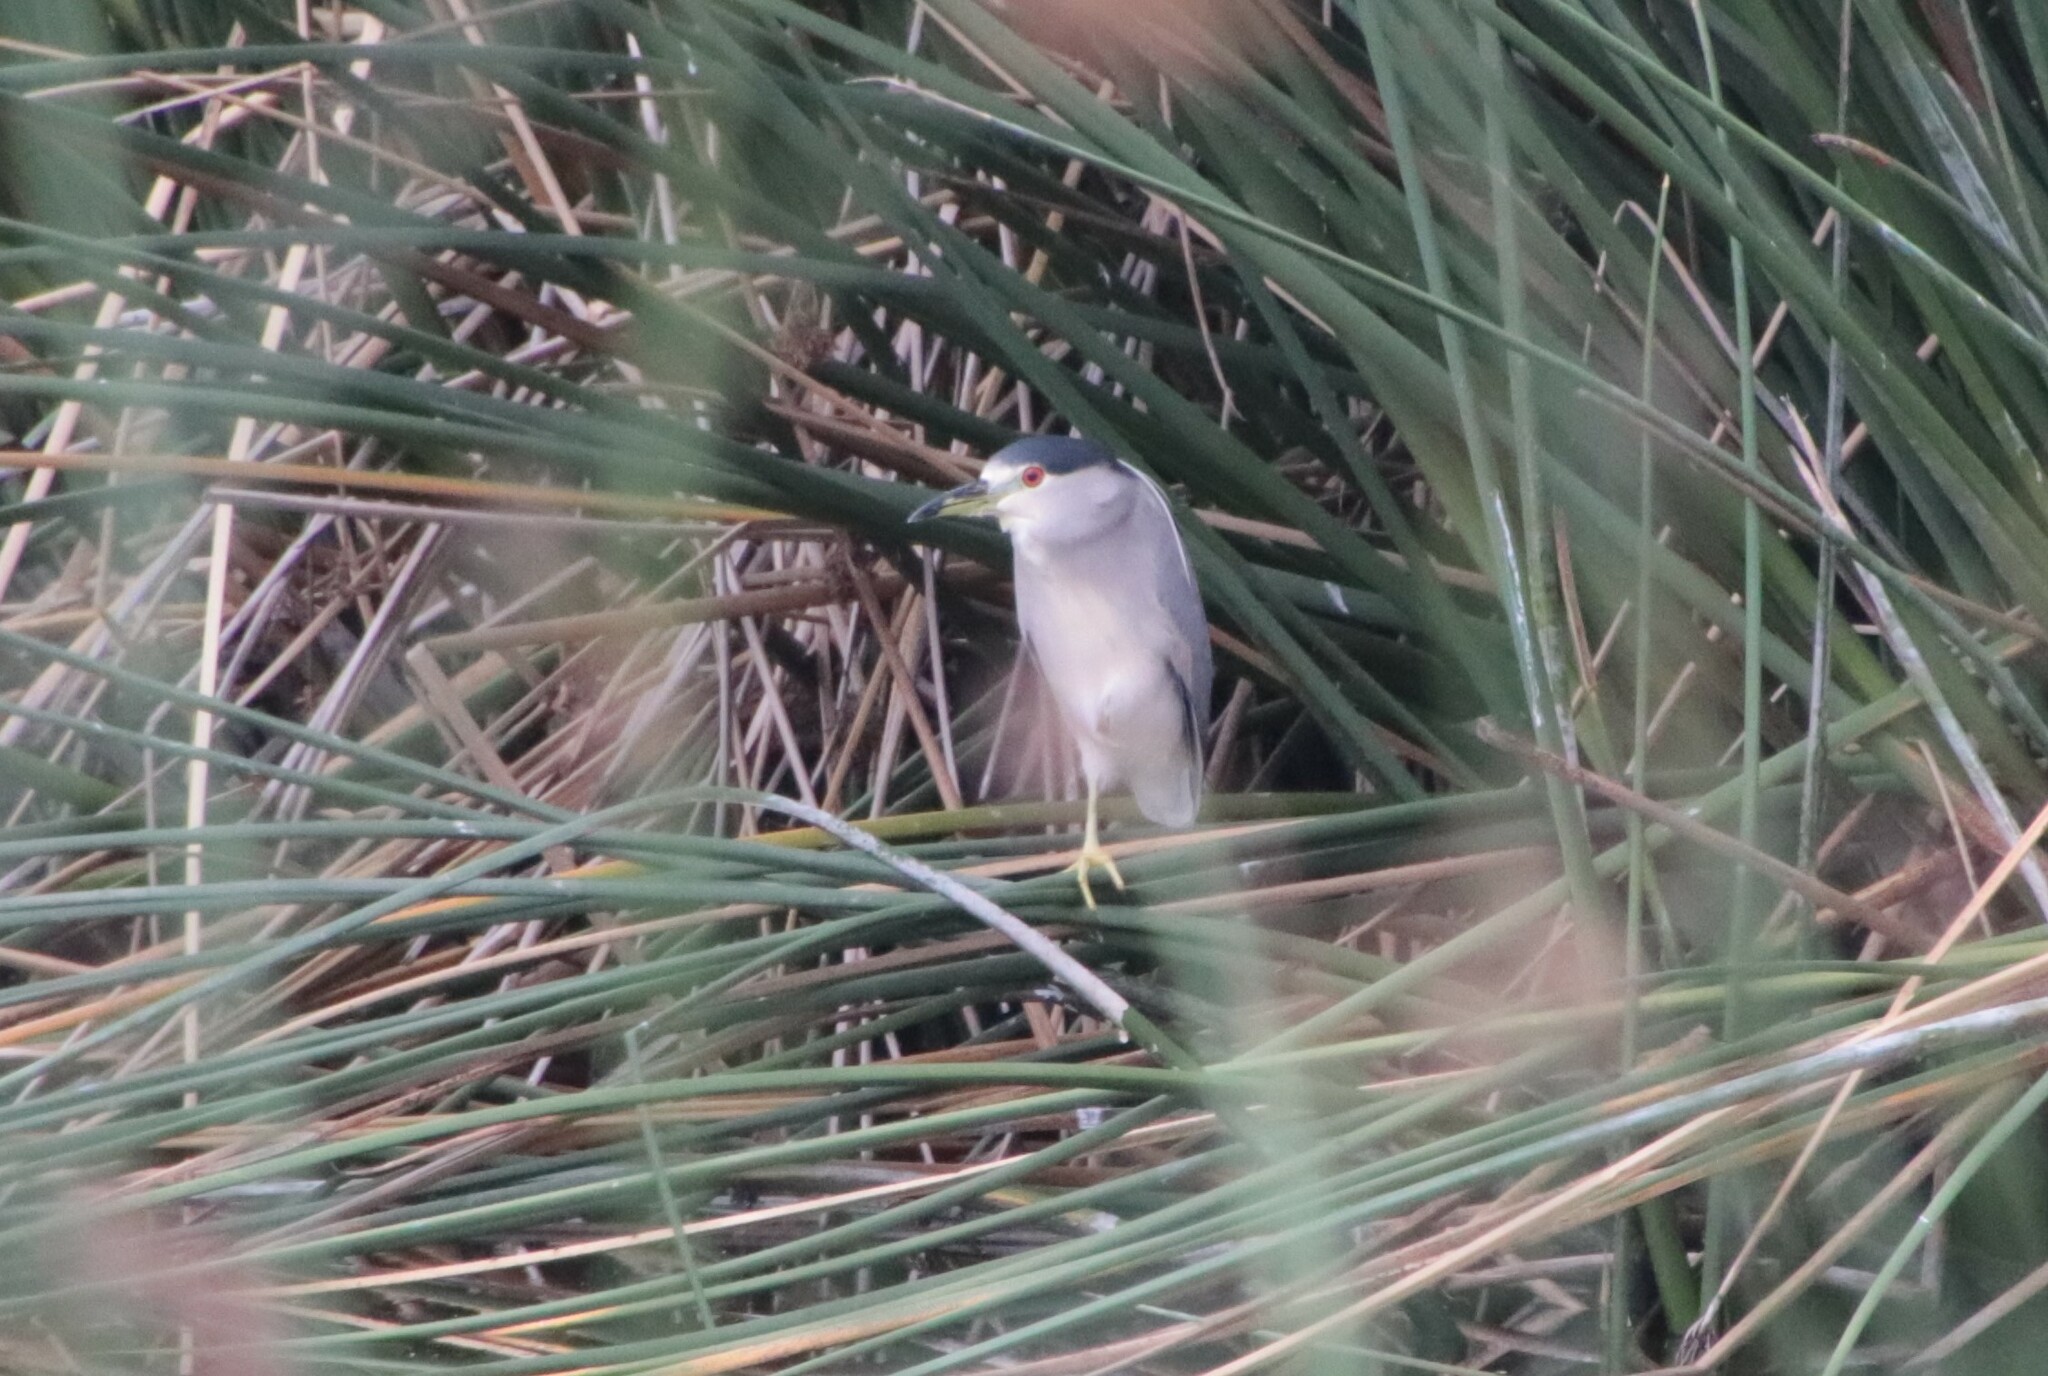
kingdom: Animalia
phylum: Chordata
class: Aves
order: Pelecaniformes
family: Ardeidae
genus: Nycticorax
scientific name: Nycticorax nycticorax
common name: Black-crowned night heron
